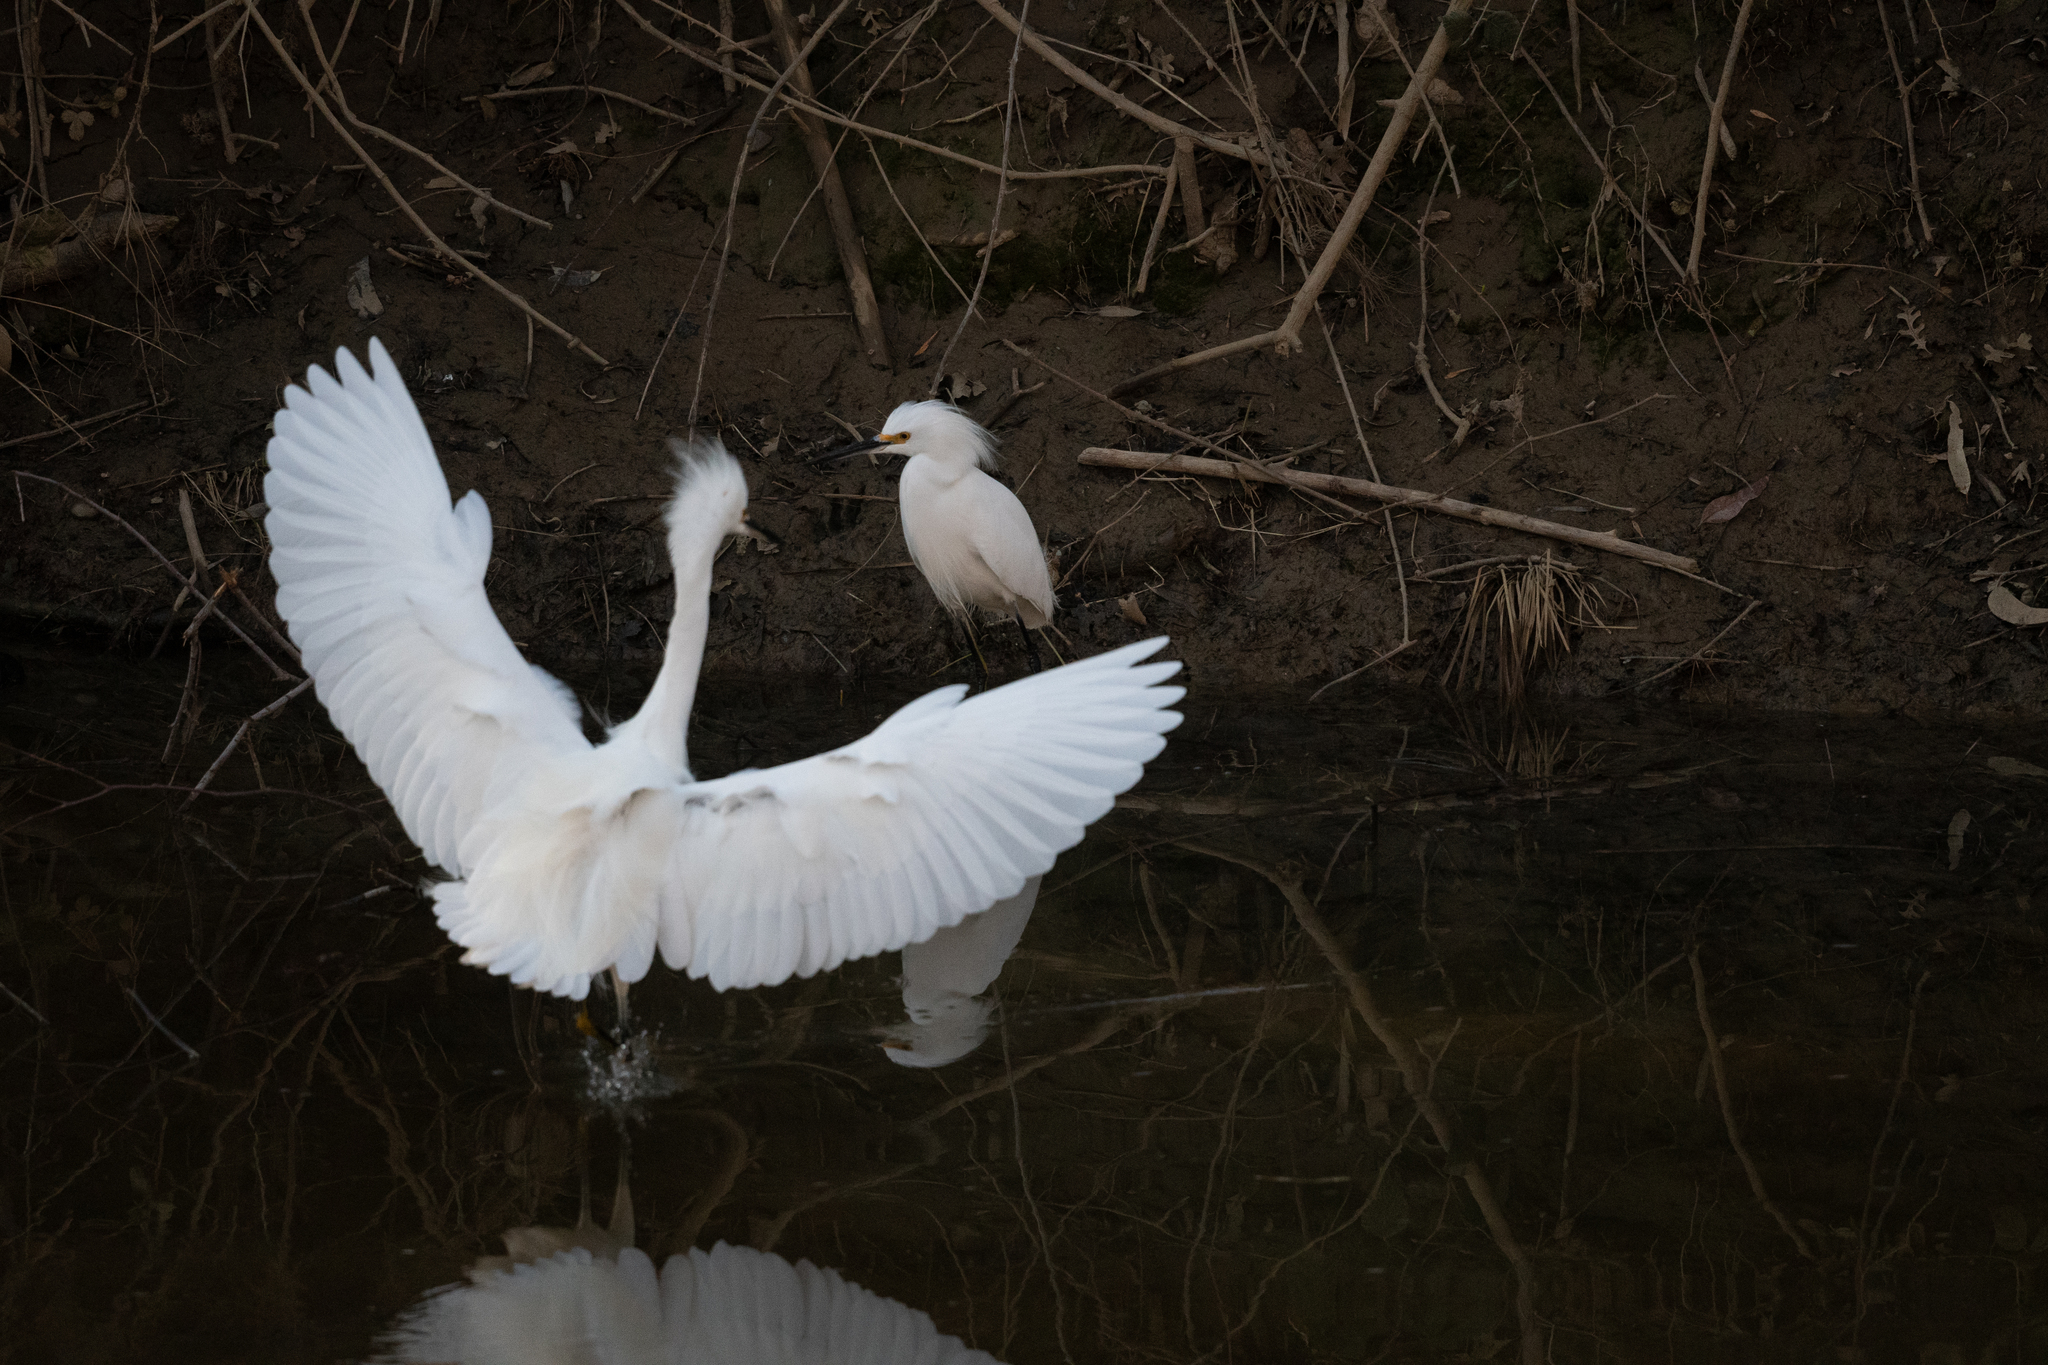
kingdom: Animalia
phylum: Chordata
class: Aves
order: Pelecaniformes
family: Ardeidae
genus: Egretta
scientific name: Egretta thula
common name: Snowy egret
